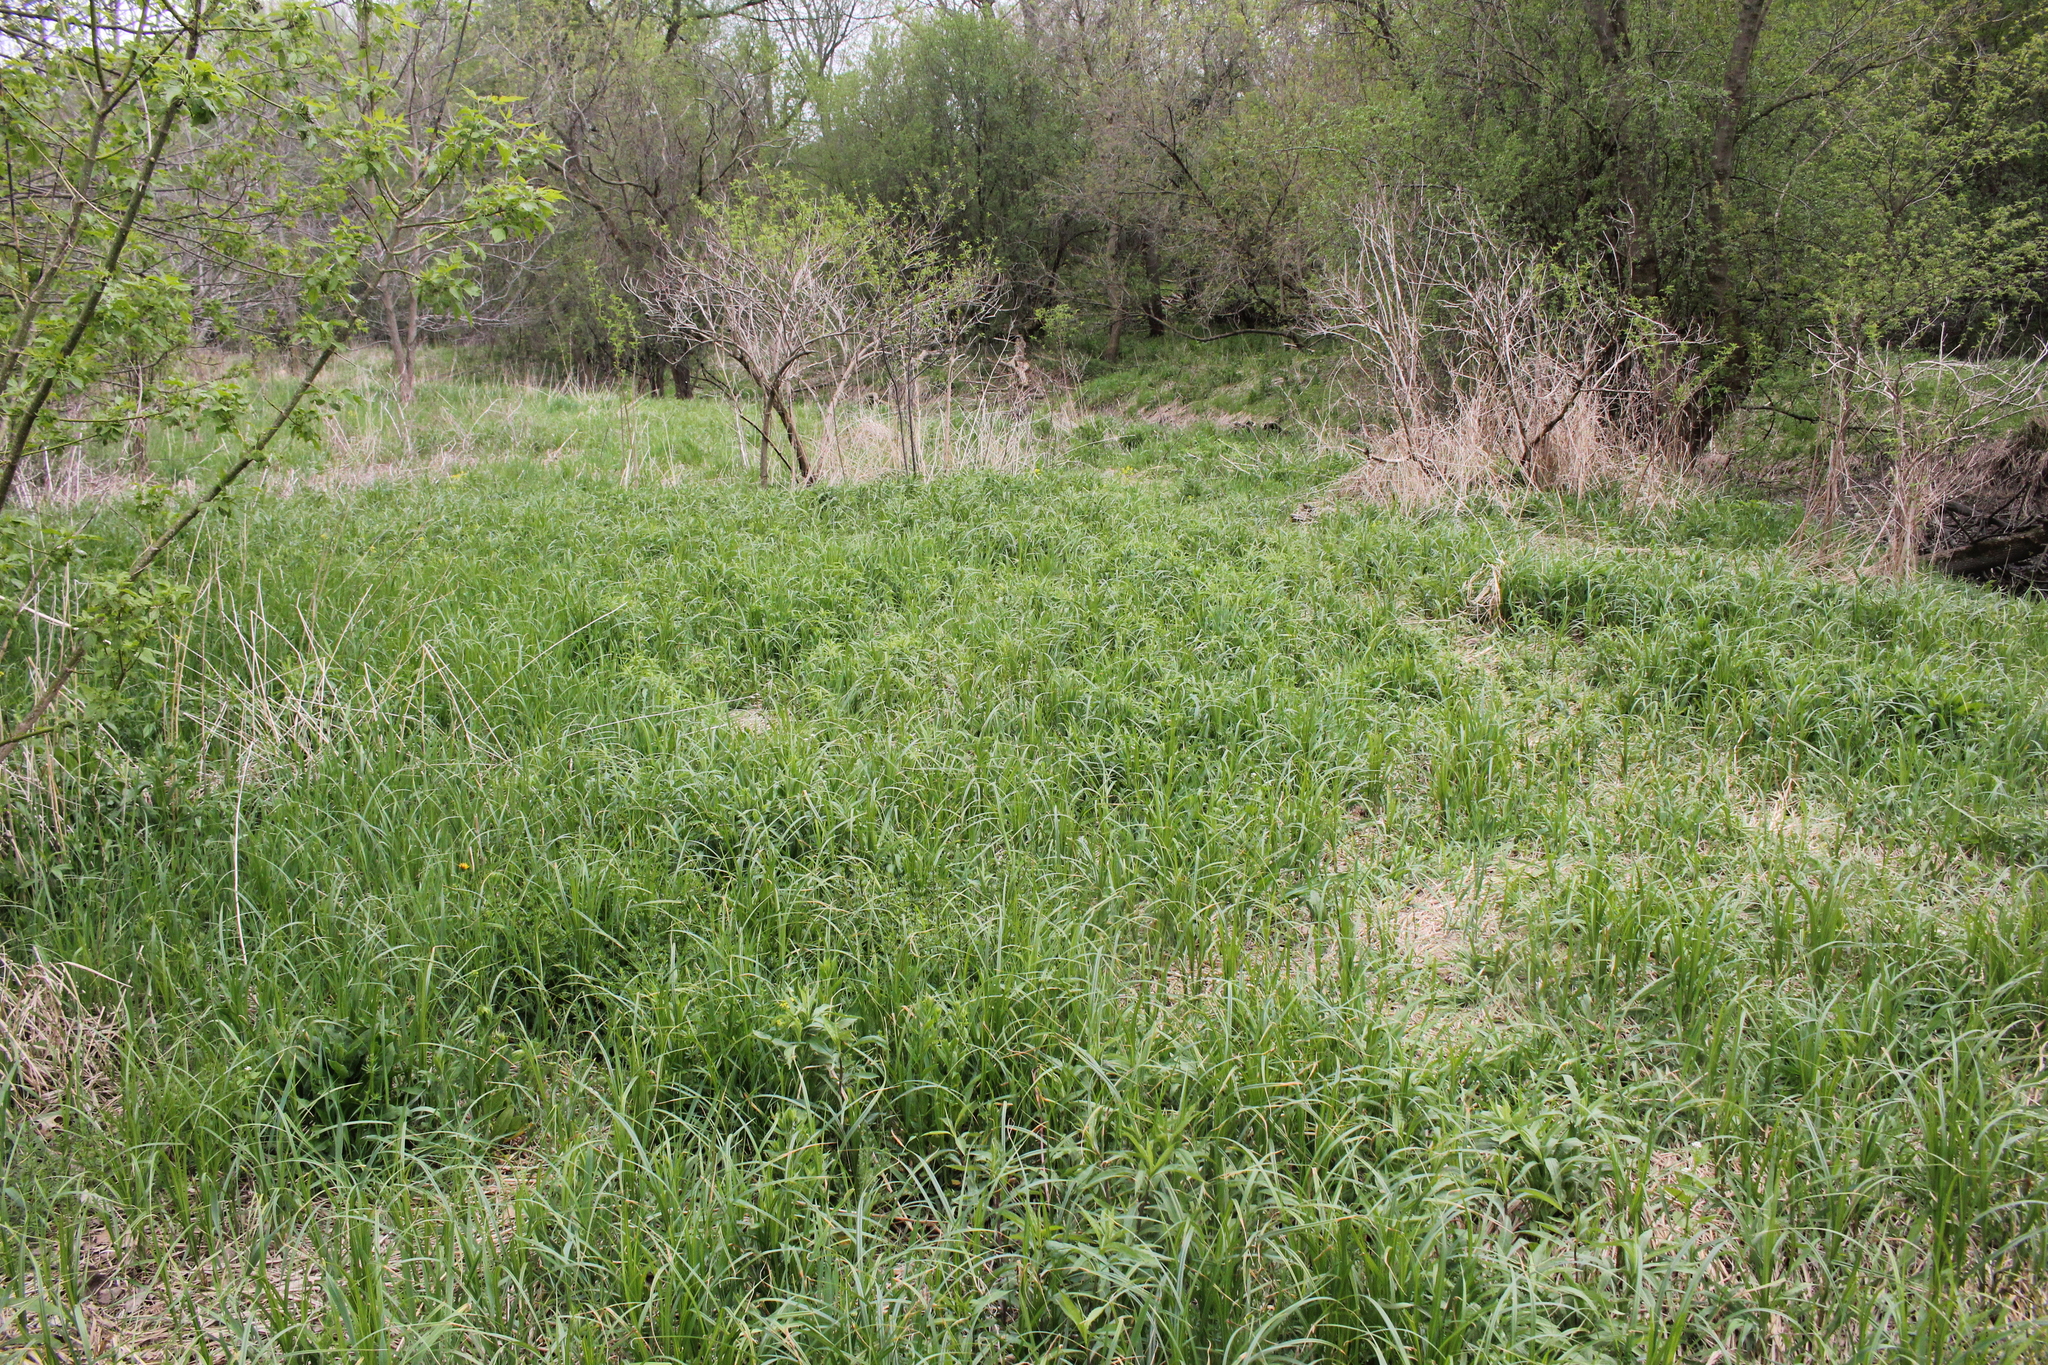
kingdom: Plantae
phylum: Tracheophyta
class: Liliopsida
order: Poales
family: Cyperaceae
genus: Carex
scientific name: Carex trichocarpa
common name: Hairy-fruited lake sedge
